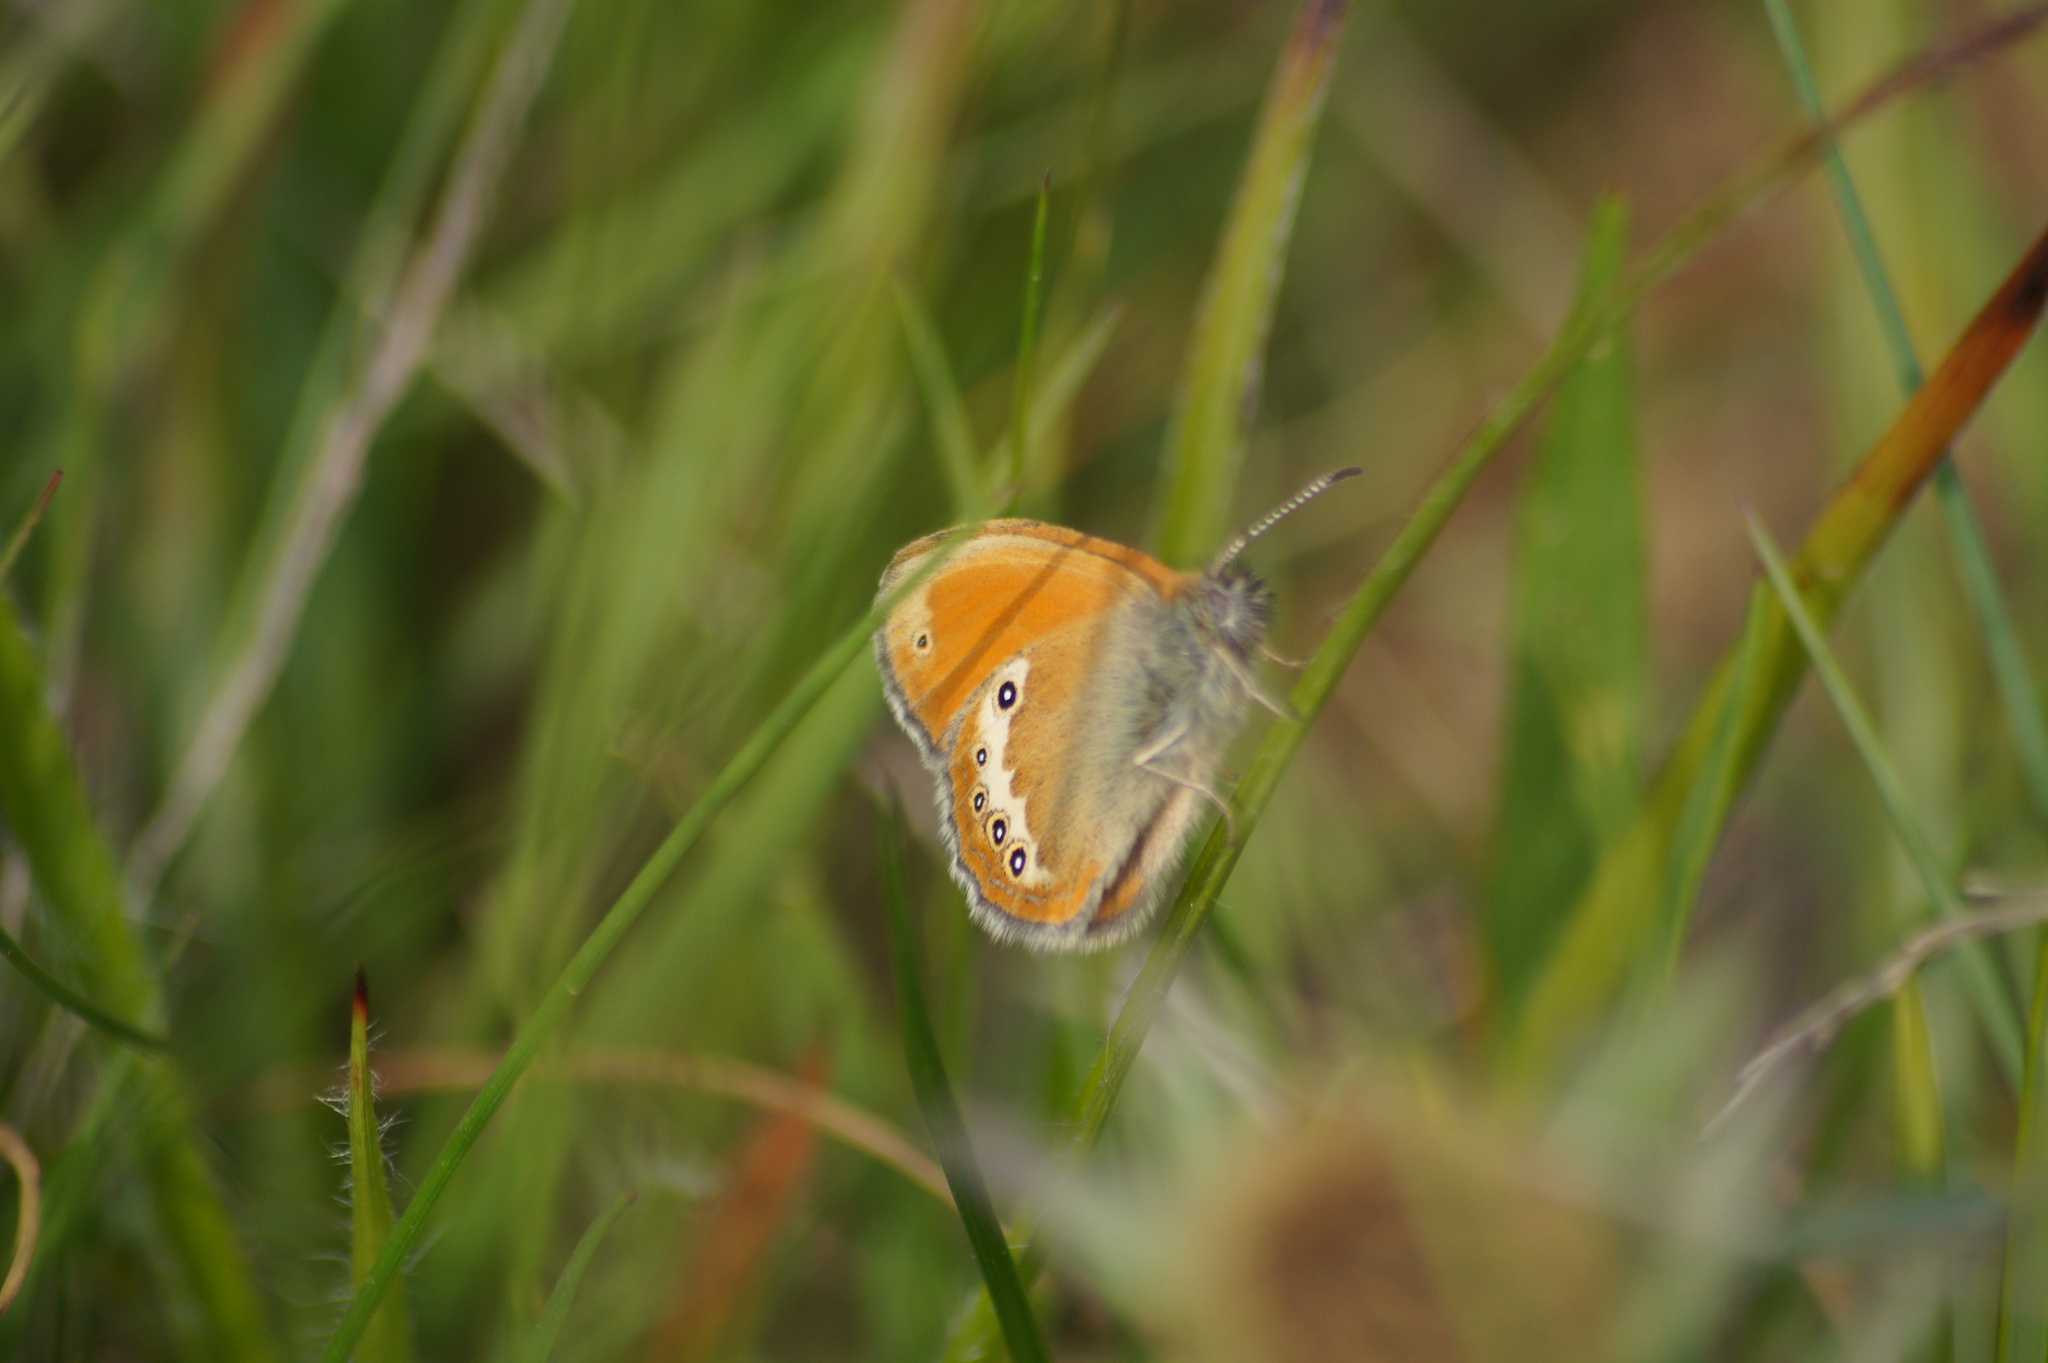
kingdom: Animalia
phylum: Arthropoda
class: Insecta
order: Lepidoptera
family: Nymphalidae
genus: Coenonympha
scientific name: Coenonympha
